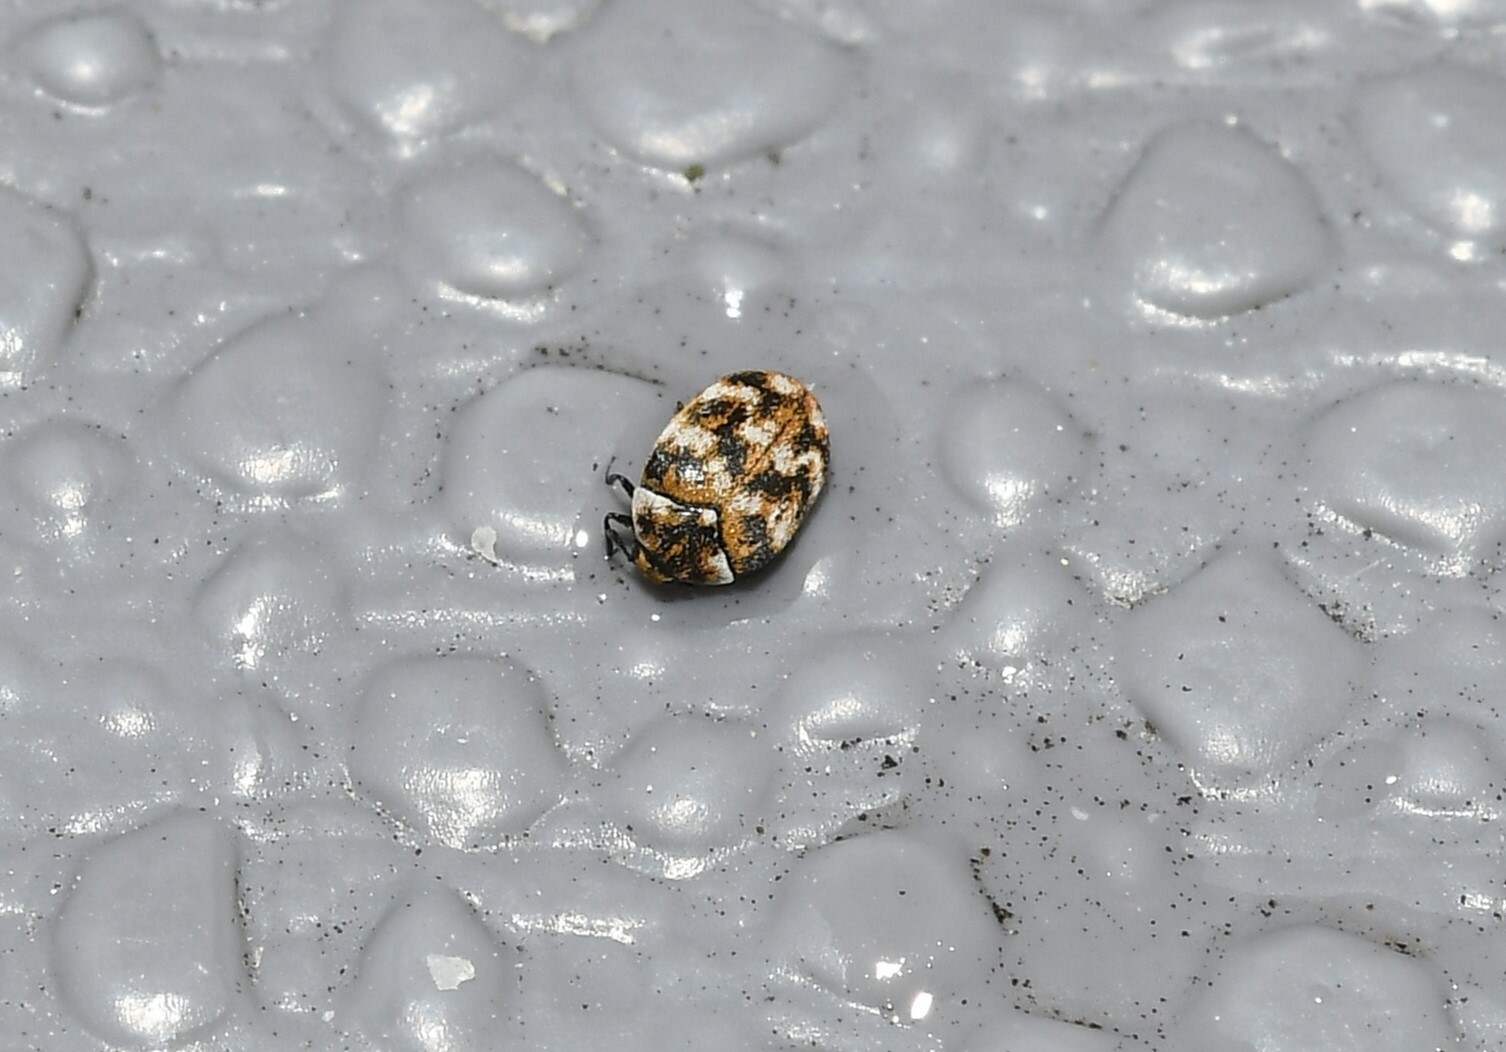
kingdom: Animalia
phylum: Arthropoda
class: Insecta
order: Coleoptera
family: Dermestidae
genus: Anthrenus
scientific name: Anthrenus verbasci
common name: Varied carpet beetle
